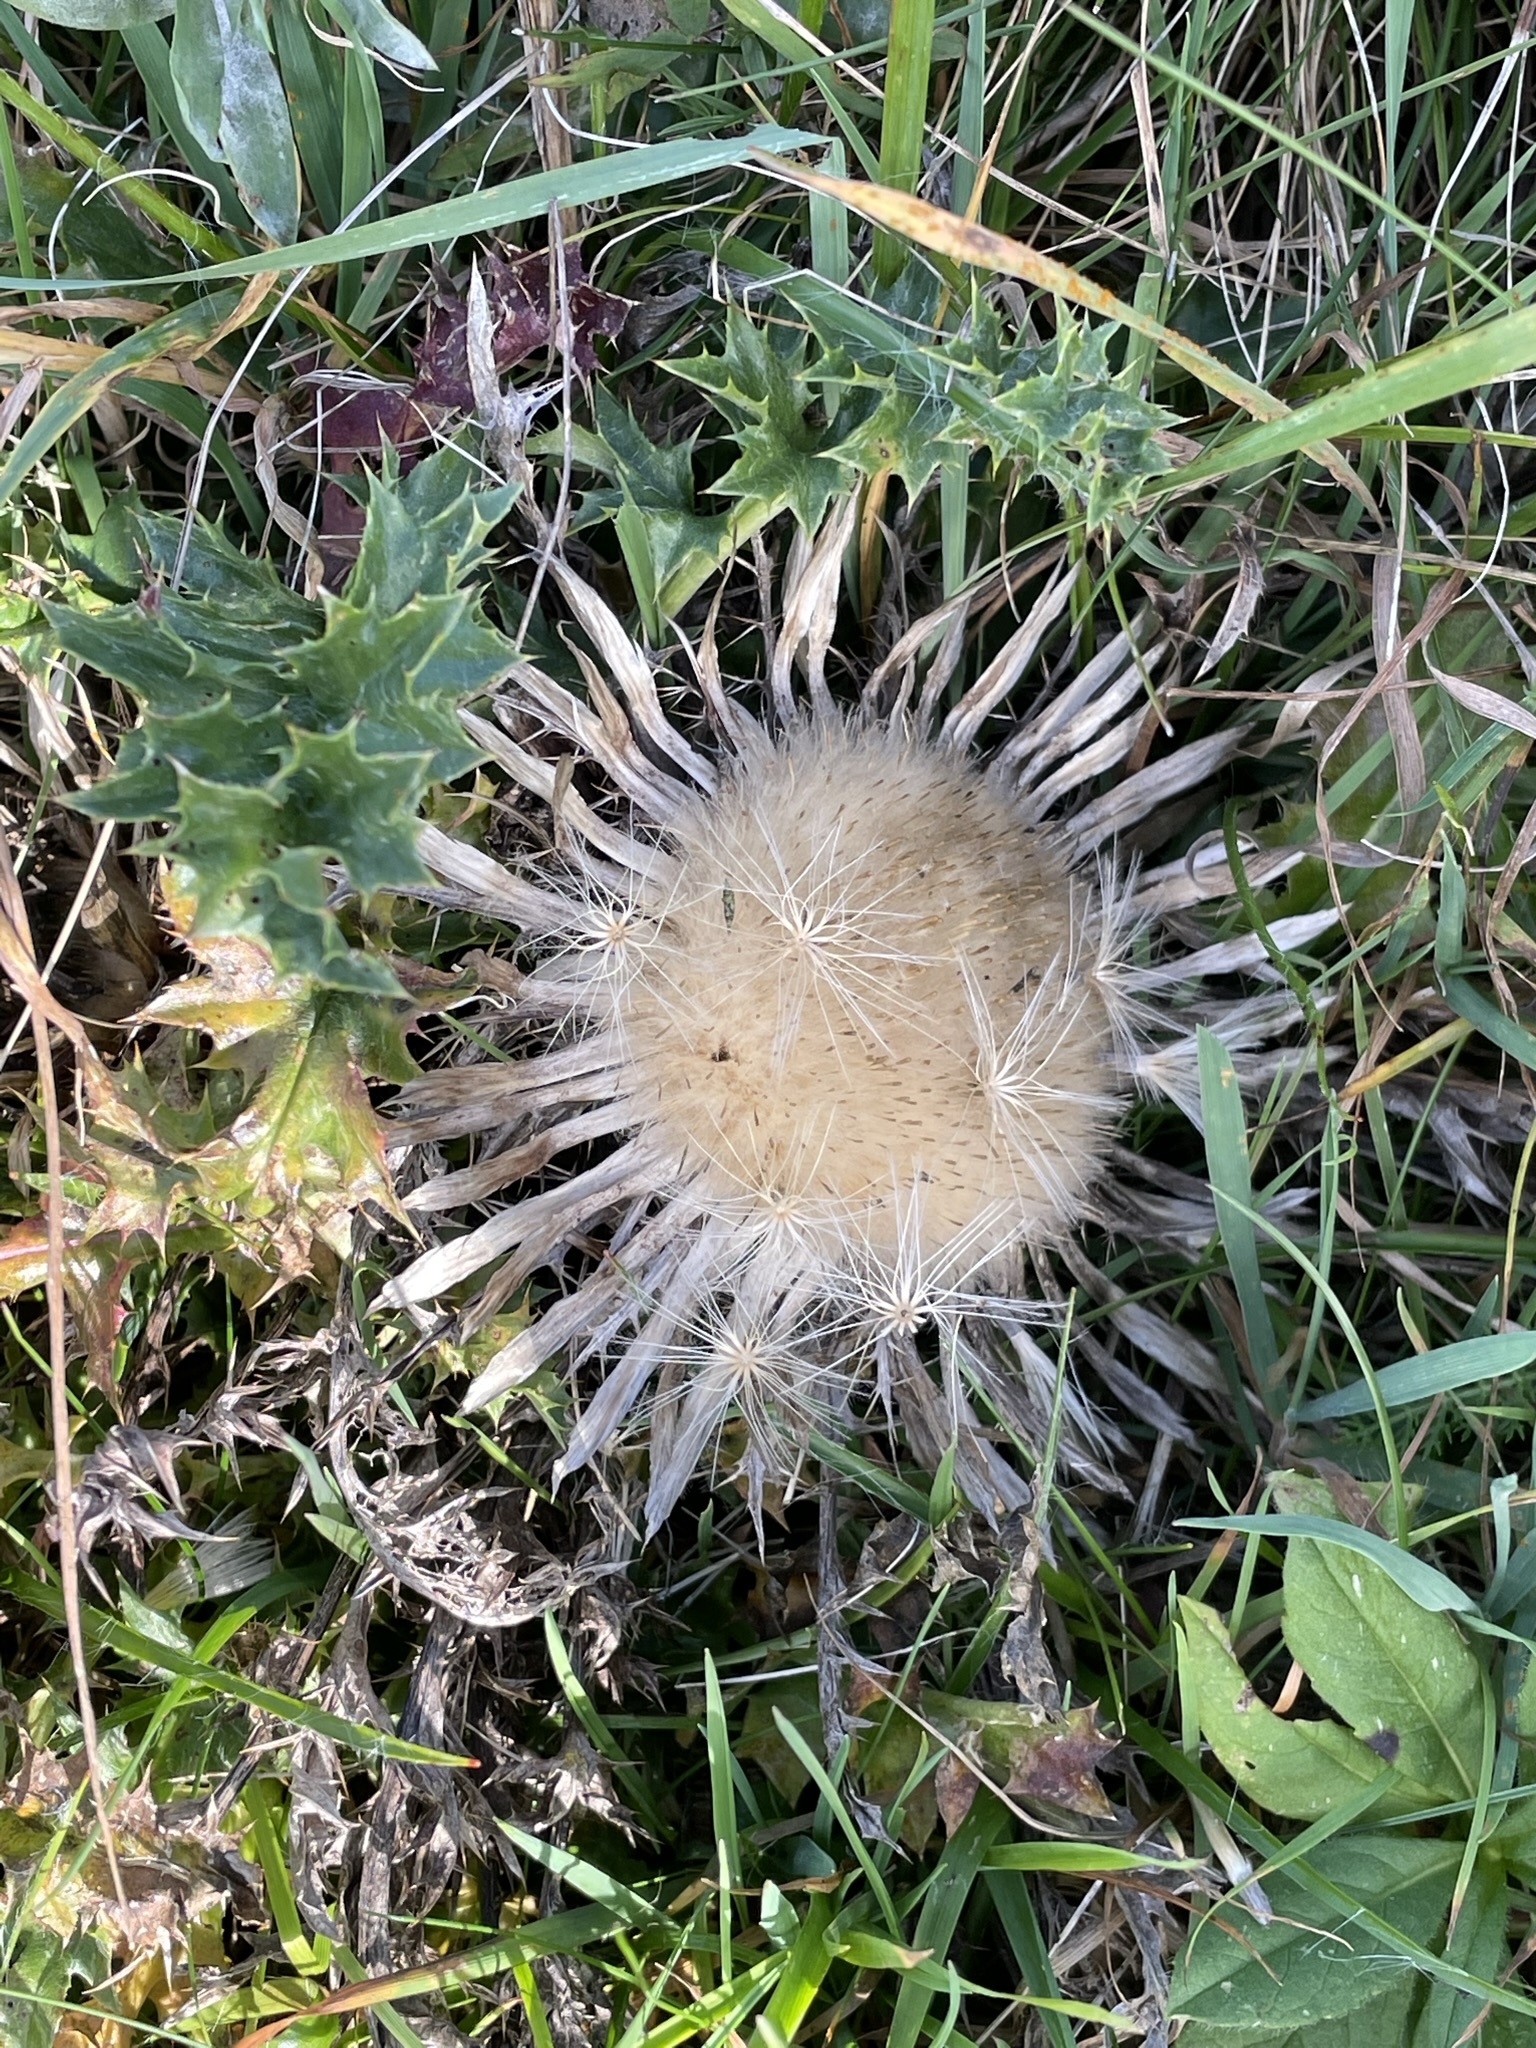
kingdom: Plantae
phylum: Tracheophyta
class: Magnoliopsida
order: Asterales
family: Asteraceae
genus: Carlina
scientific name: Carlina acaulis
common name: Stemless carline thistle
